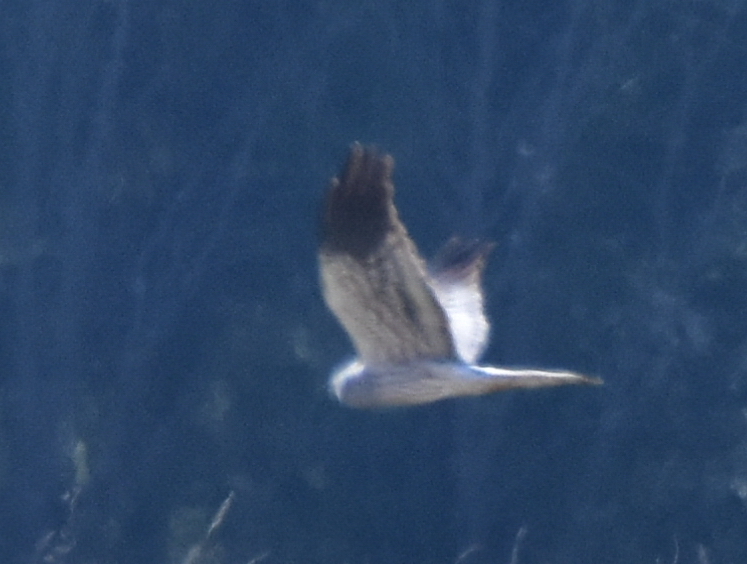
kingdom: Animalia
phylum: Chordata
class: Aves
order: Accipitriformes
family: Accipitridae
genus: Circus
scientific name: Circus pygargus
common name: Montagu's harrier
